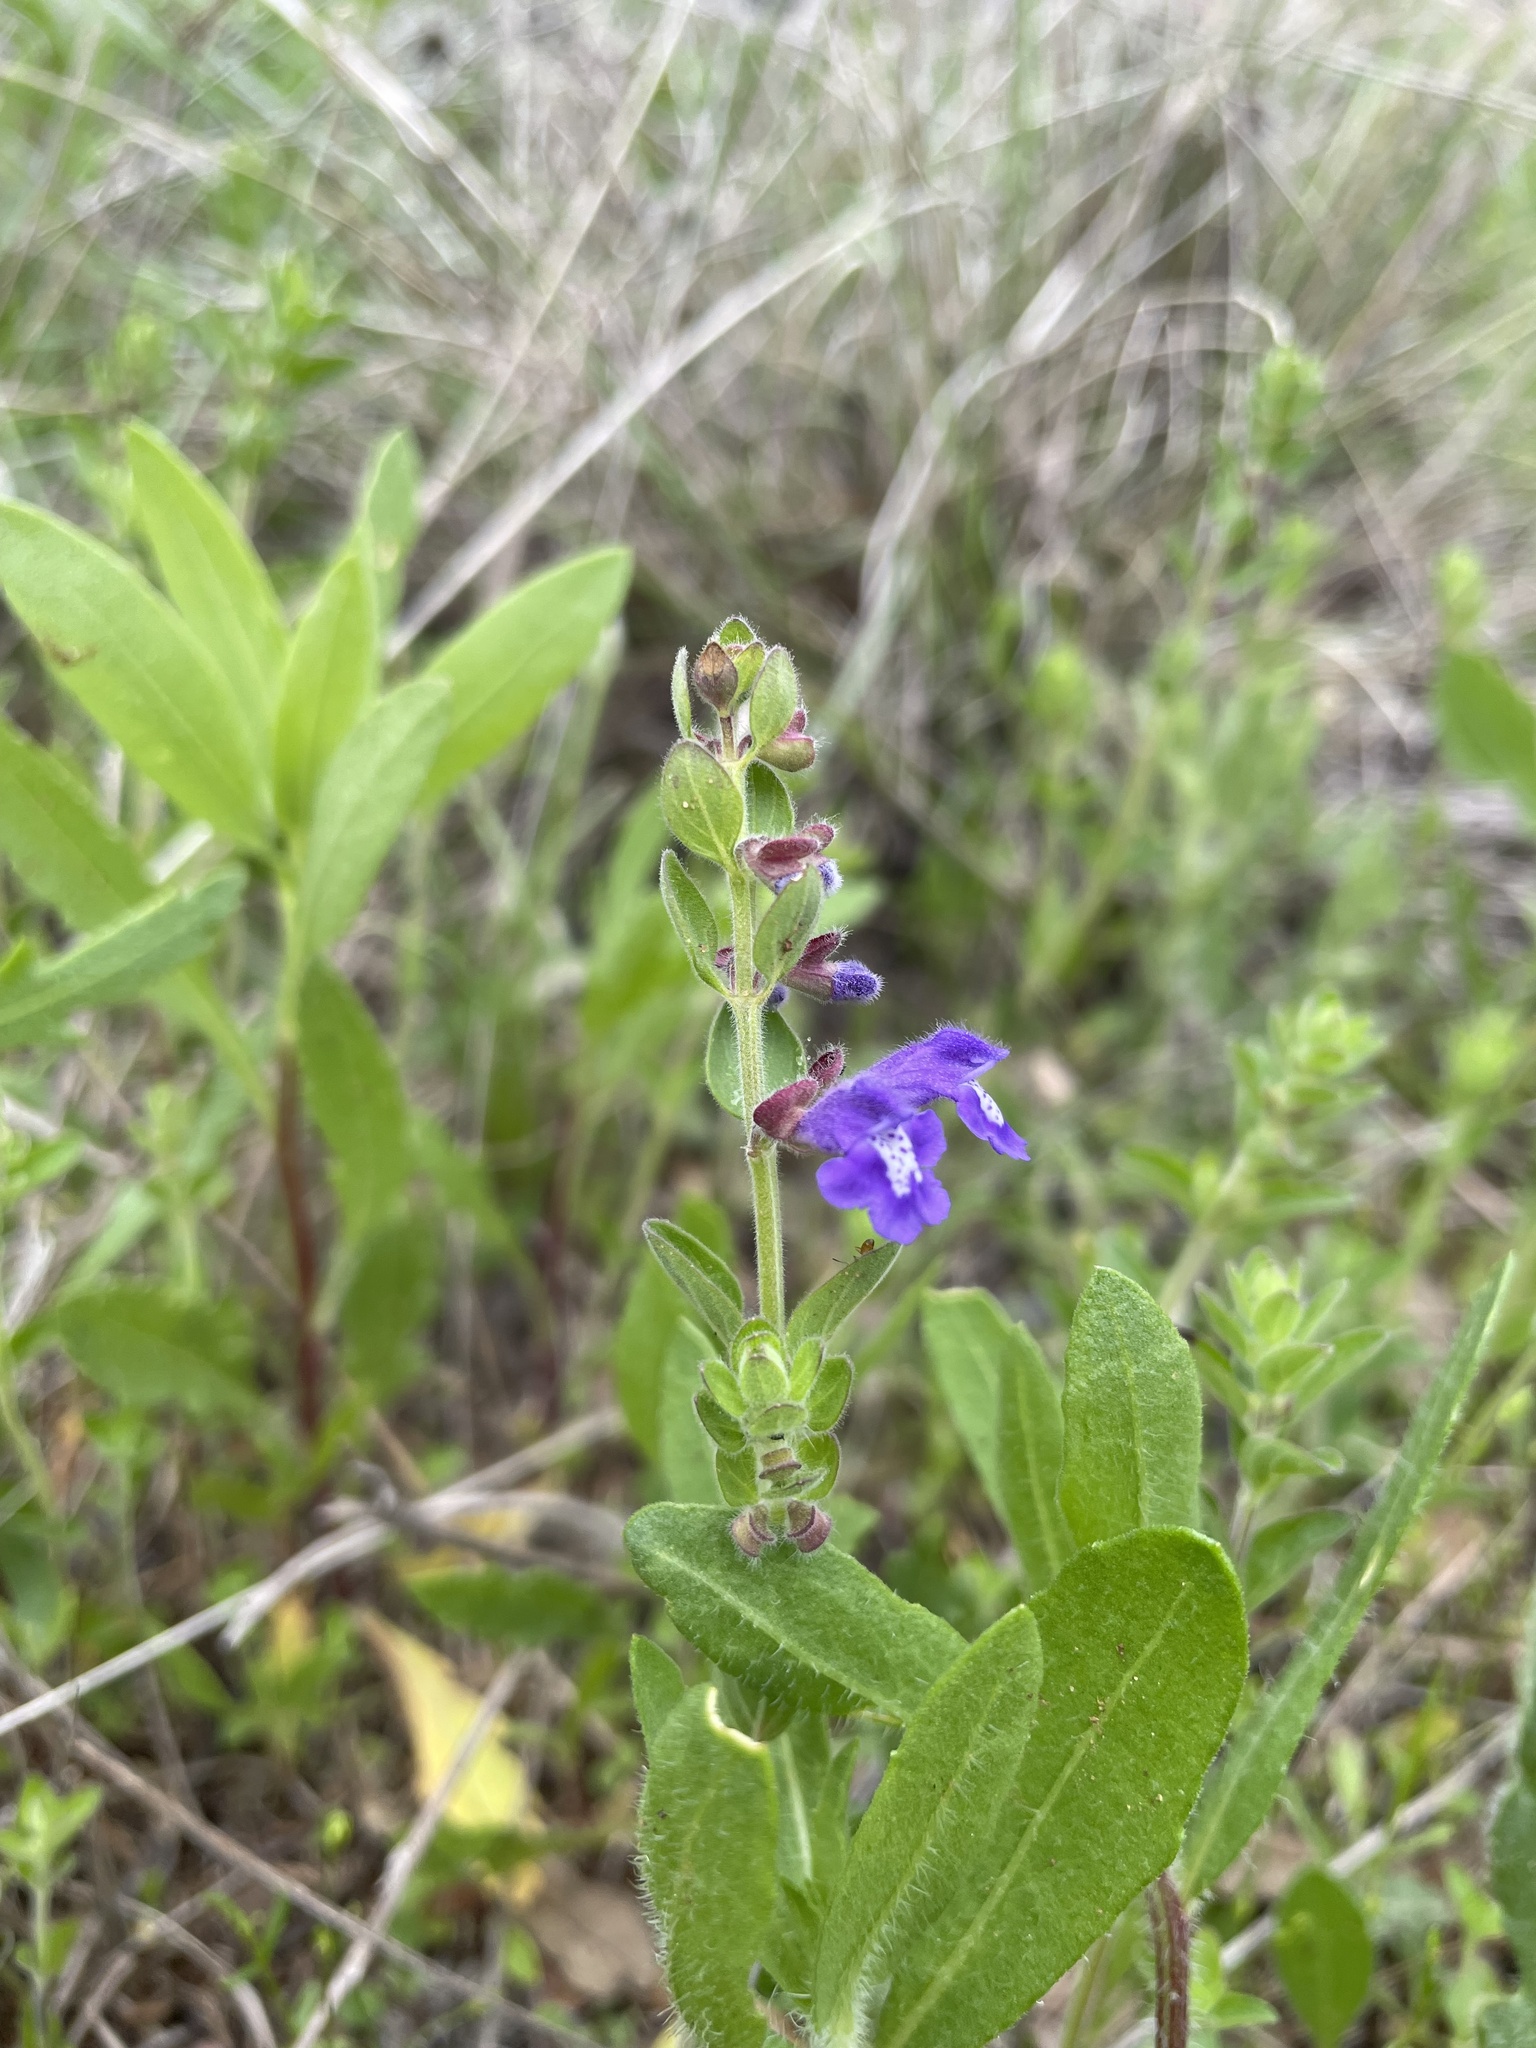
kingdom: Plantae
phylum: Tracheophyta
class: Magnoliopsida
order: Lamiales
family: Lamiaceae
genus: Scutellaria
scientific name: Scutellaria drummondii
